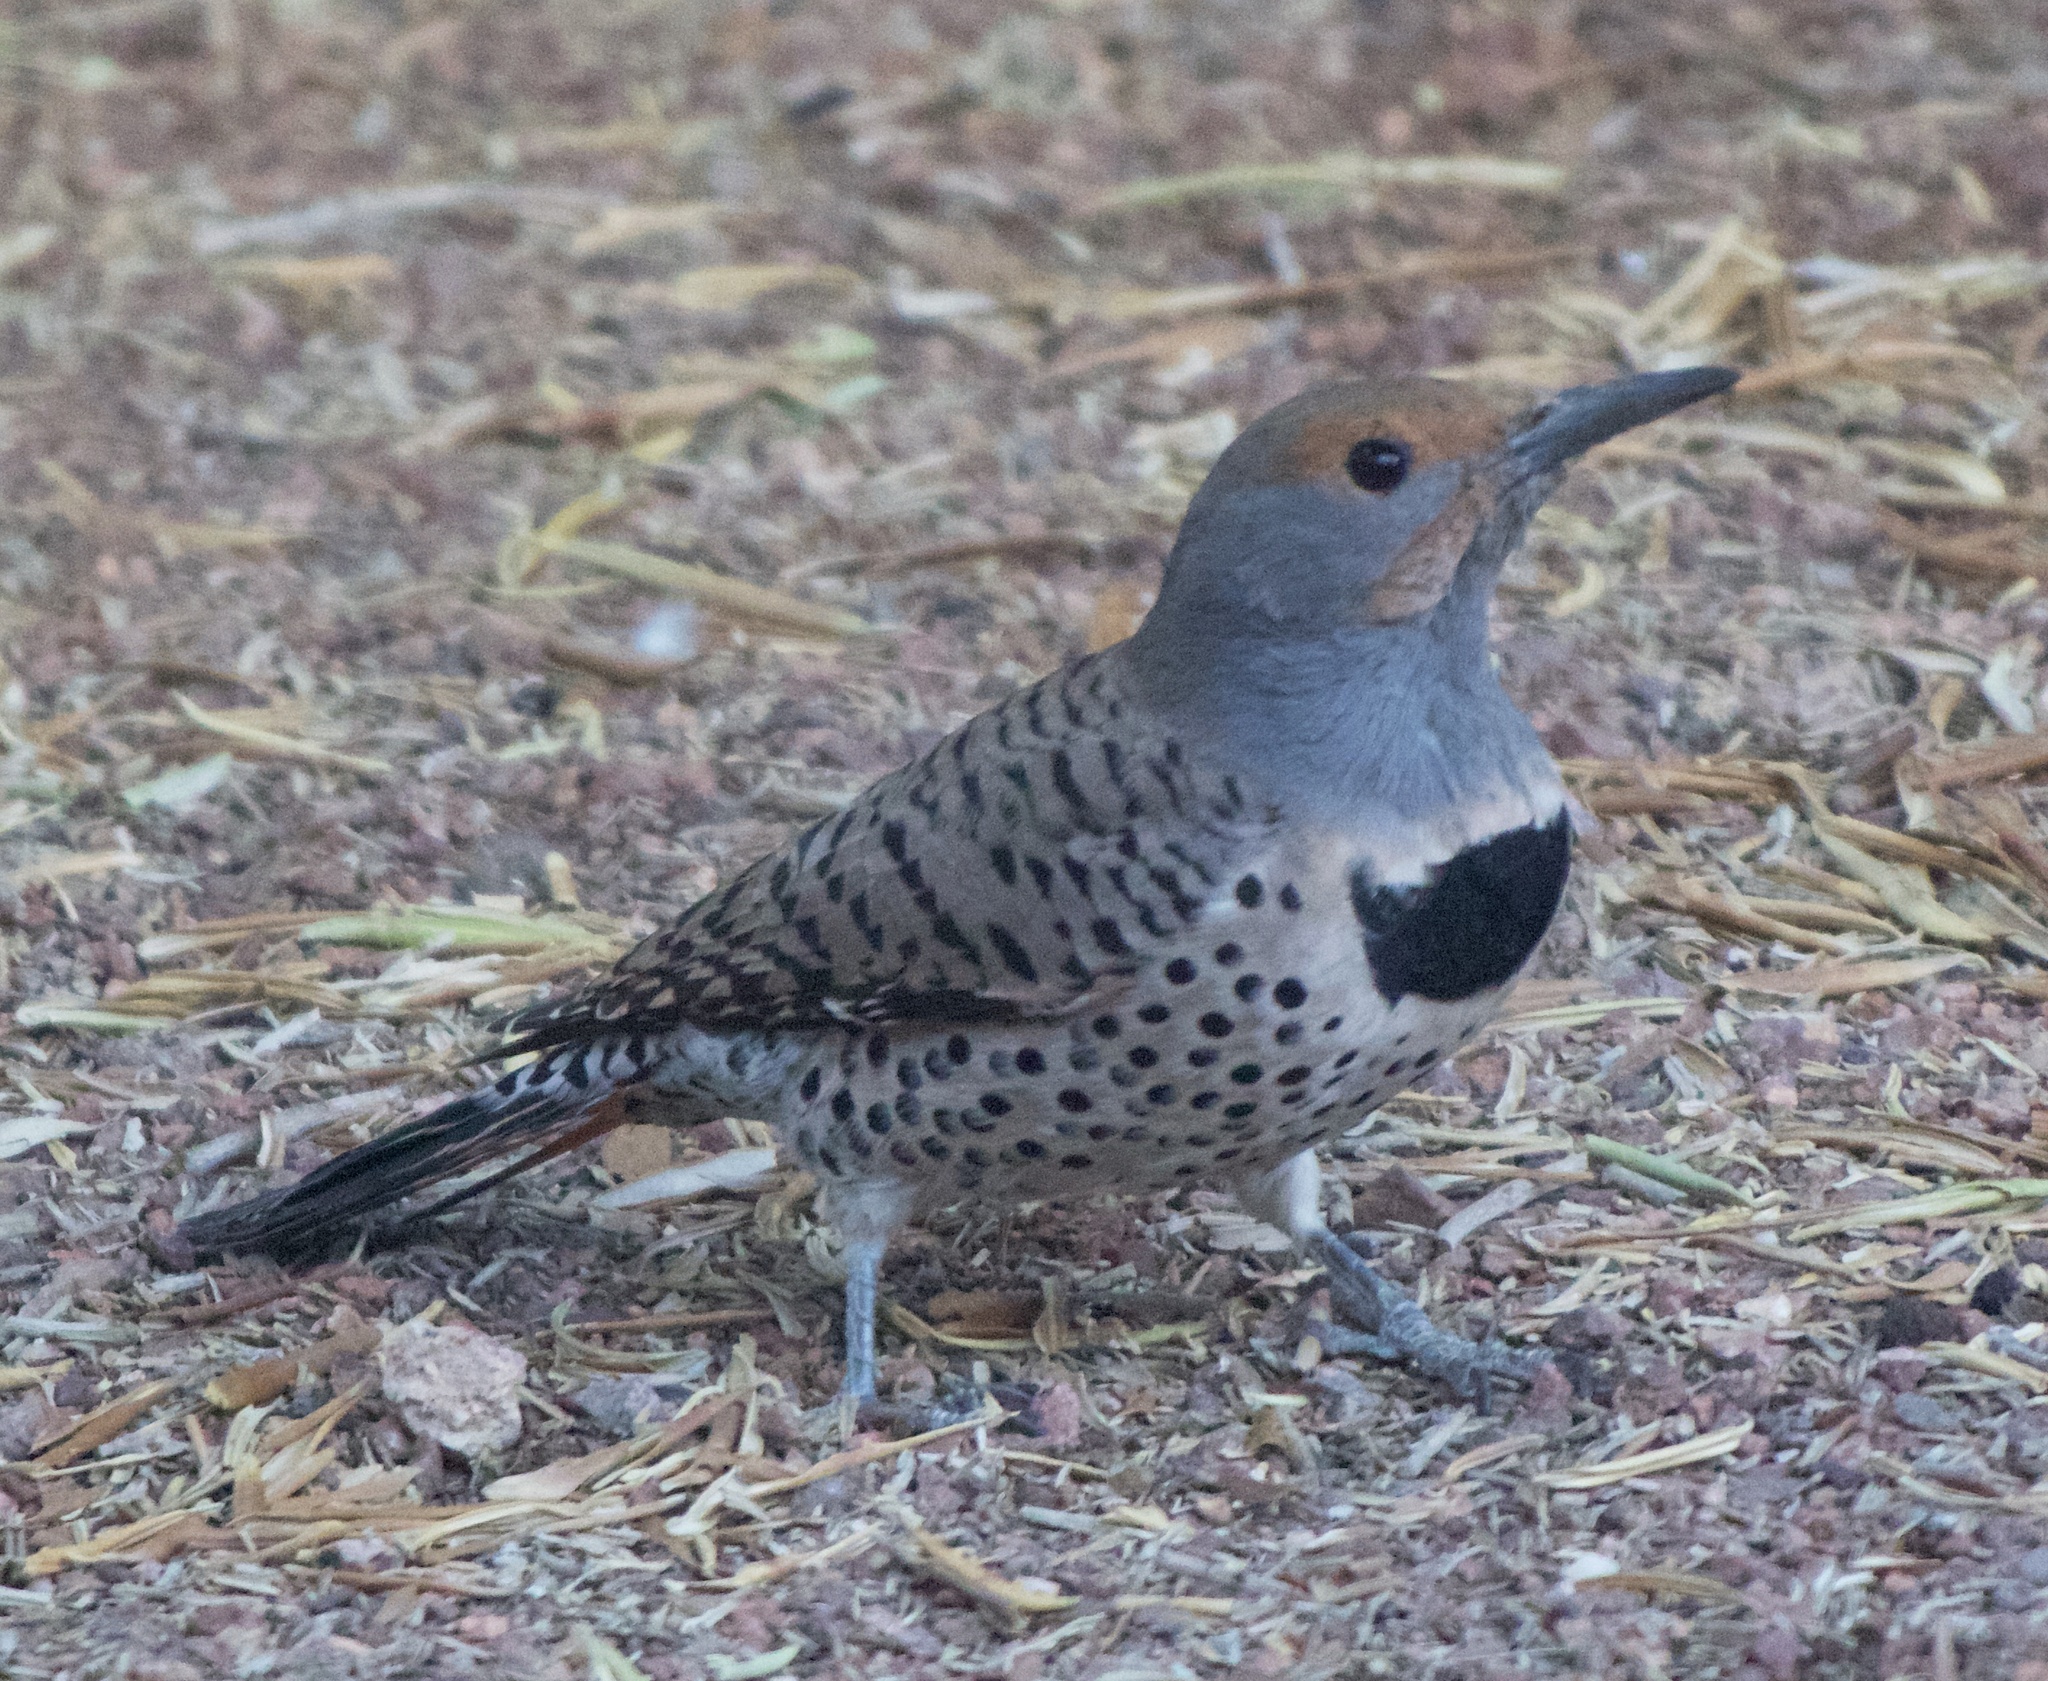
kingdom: Animalia
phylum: Chordata
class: Aves
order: Piciformes
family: Picidae
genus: Colaptes
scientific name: Colaptes auratus
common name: Northern flicker
